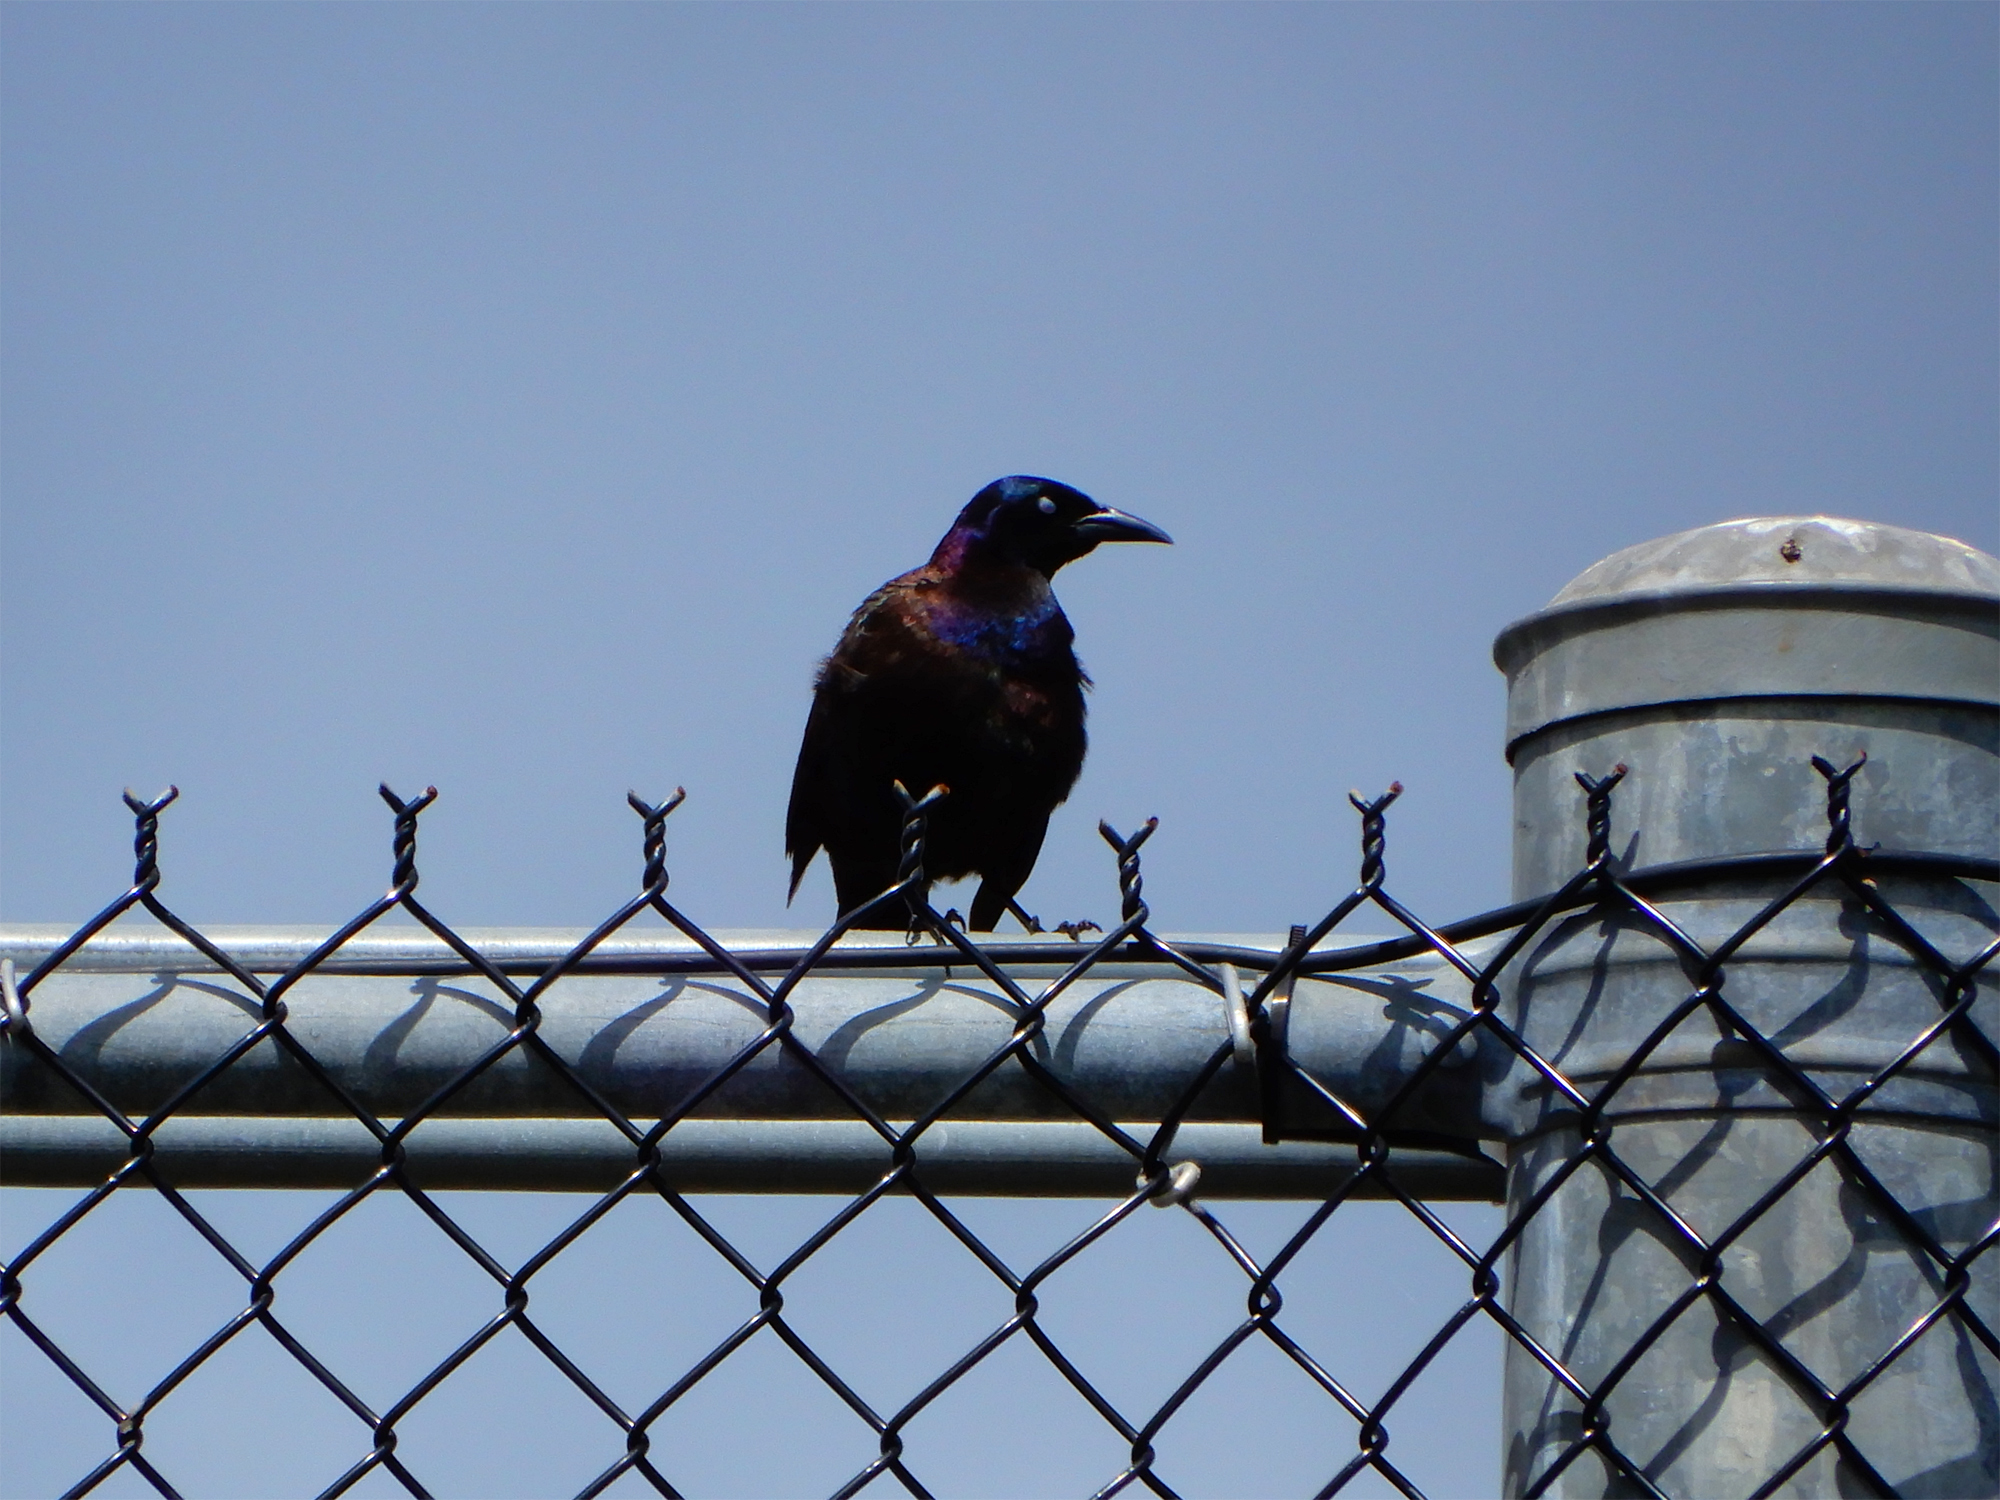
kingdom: Animalia
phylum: Chordata
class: Aves
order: Passeriformes
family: Icteridae
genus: Quiscalus
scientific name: Quiscalus quiscula
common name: Common grackle
